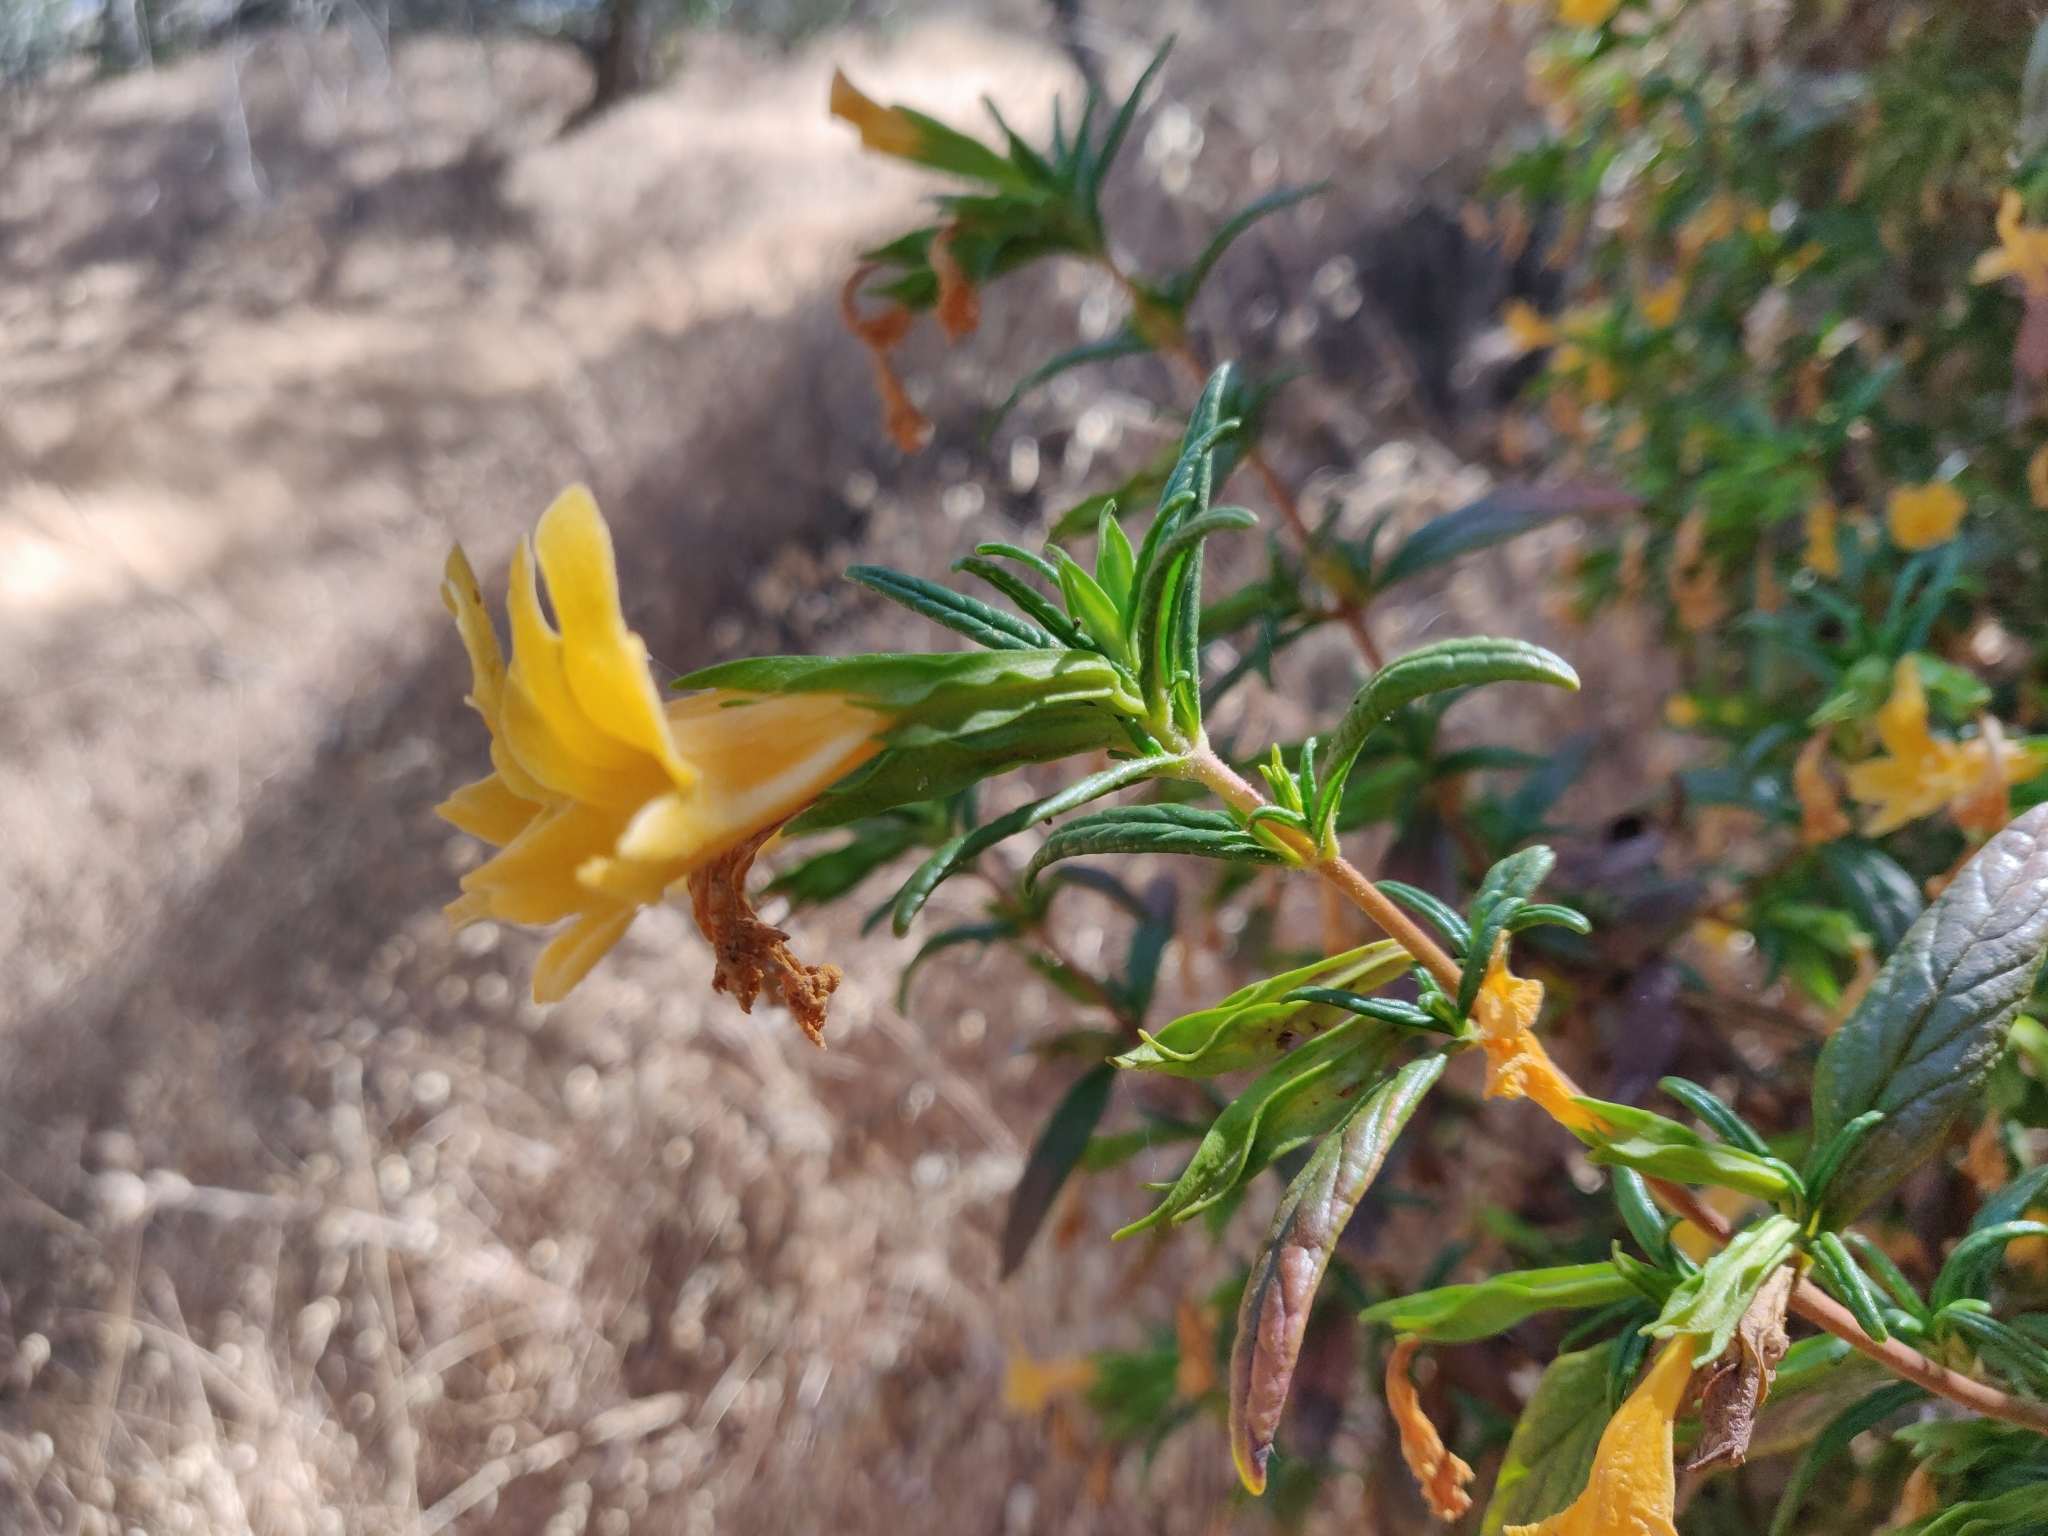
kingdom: Plantae
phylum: Tracheophyta
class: Magnoliopsida
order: Lamiales
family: Phrymaceae
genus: Diplacus
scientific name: Diplacus aurantiacus
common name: Bush monkey-flower
